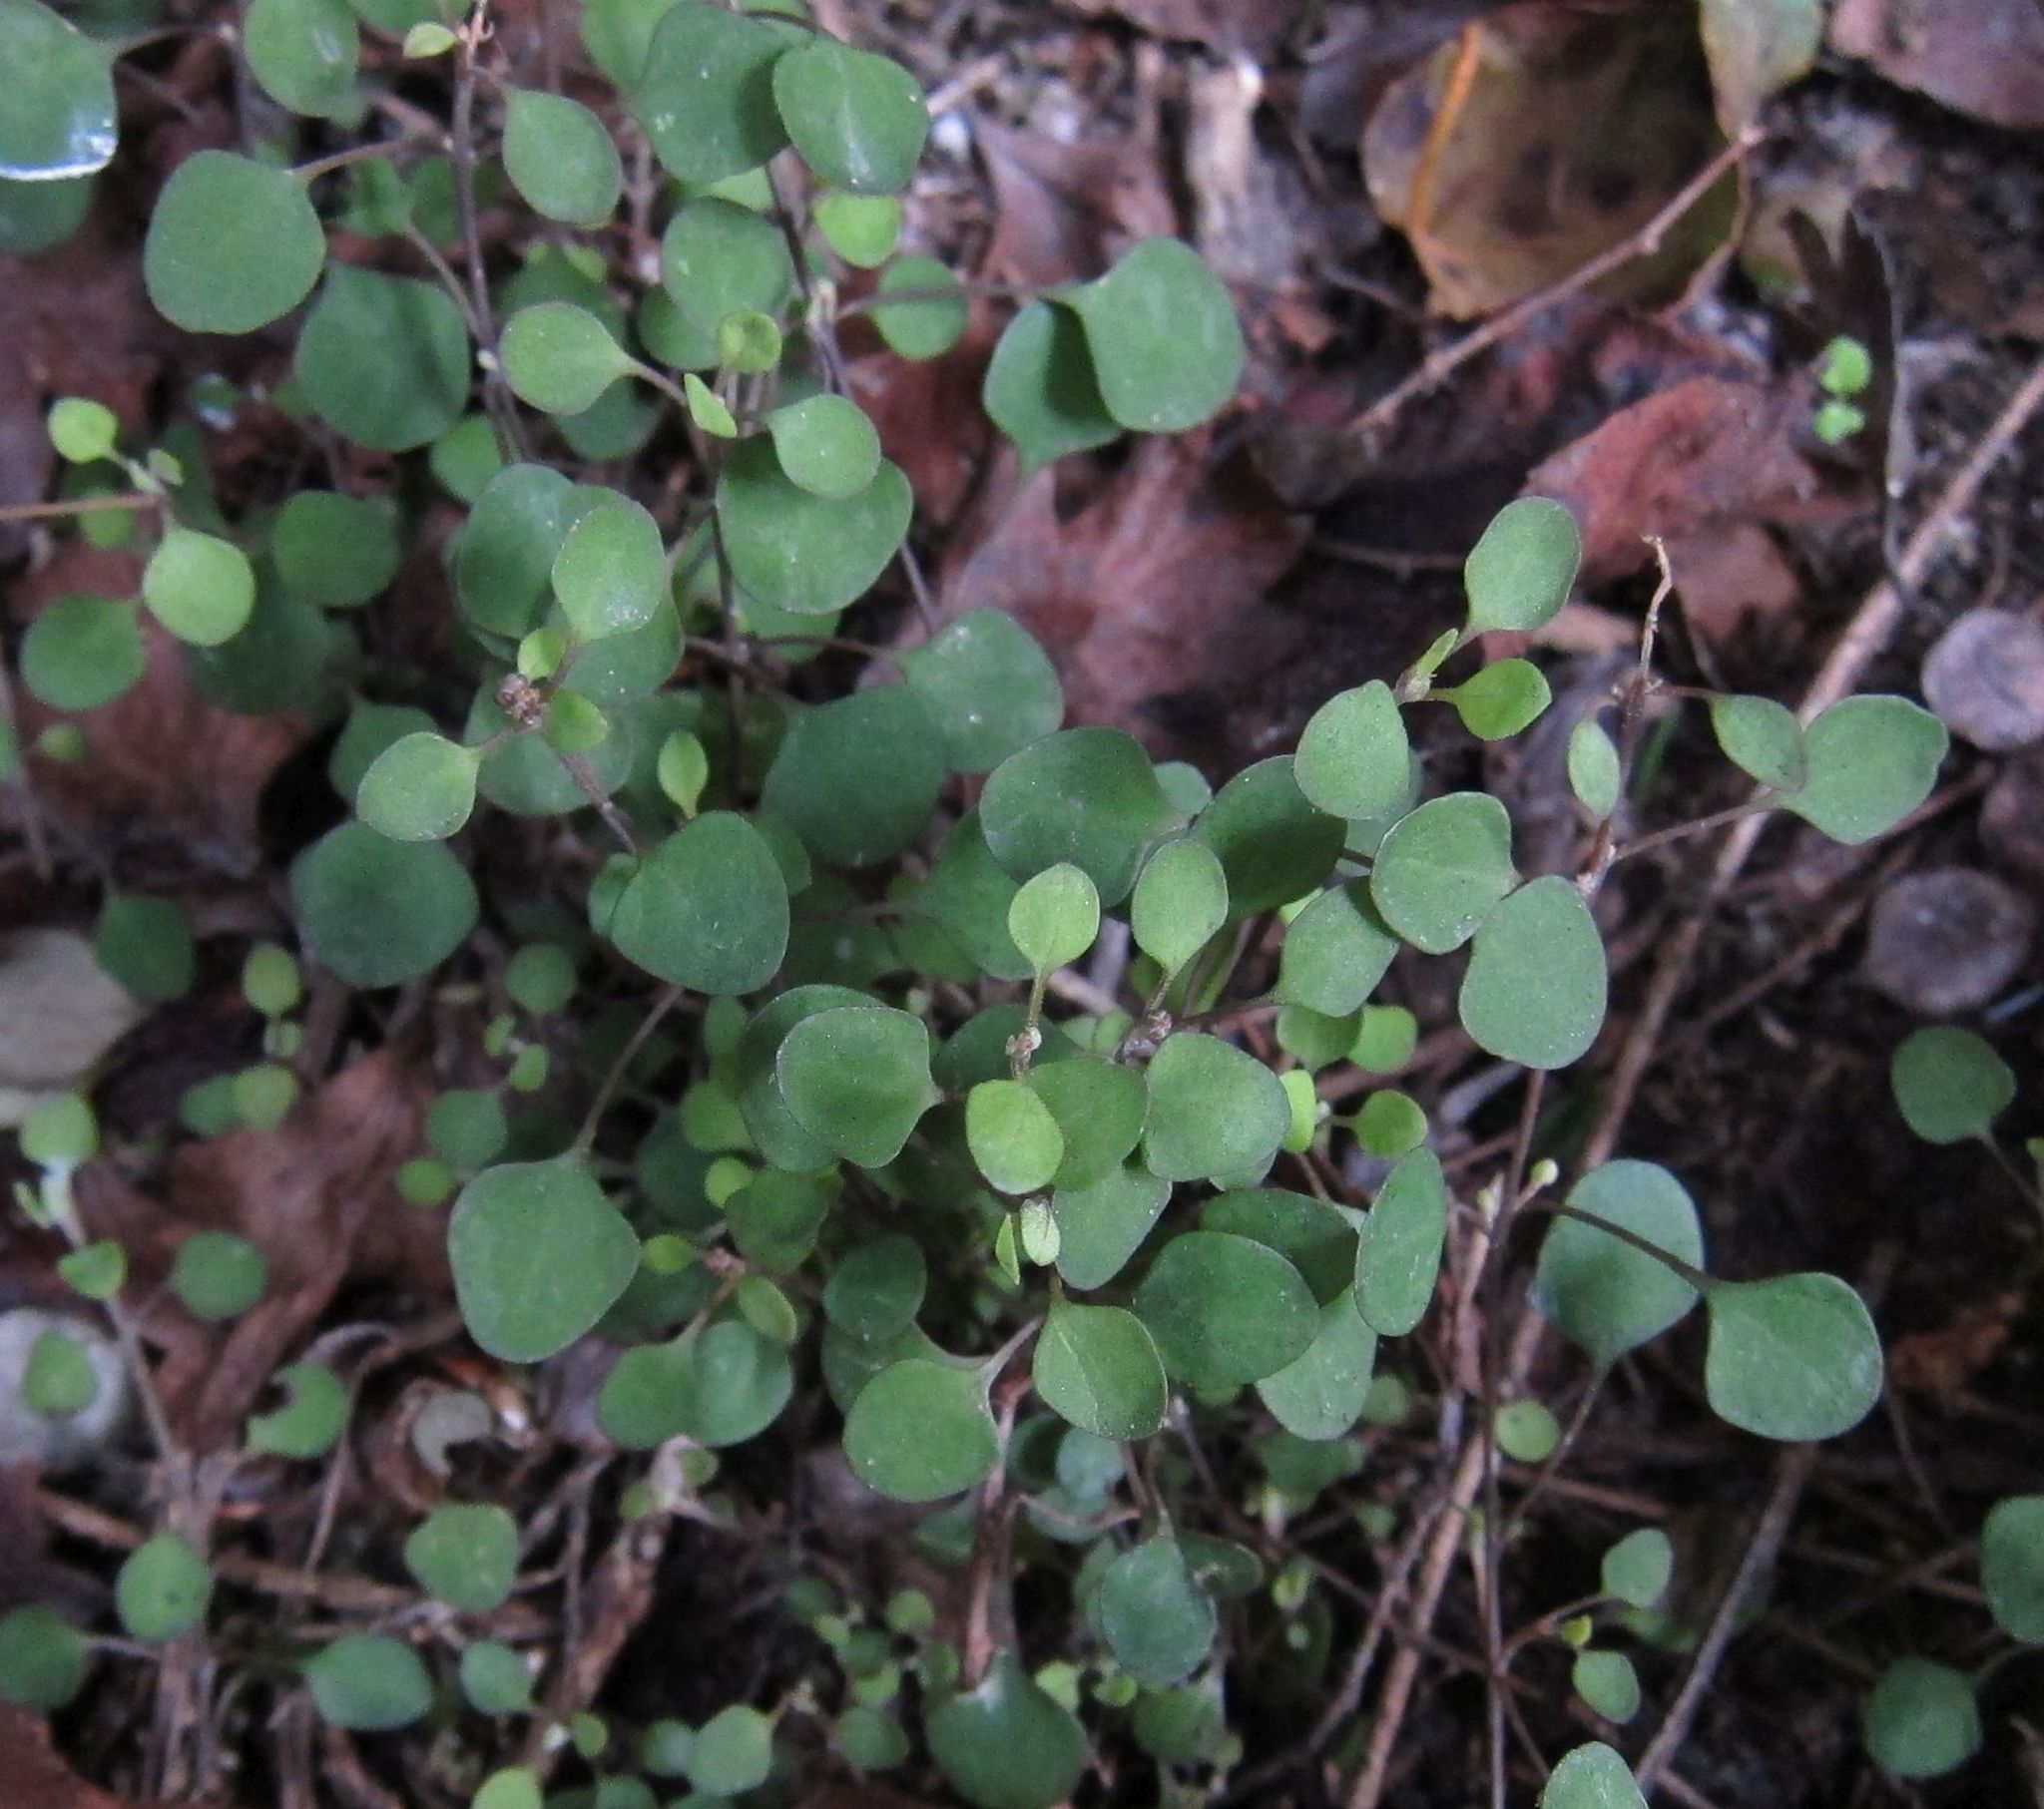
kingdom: Plantae
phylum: Tracheophyta
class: Magnoliopsida
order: Caryophyllales
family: Amaranthaceae
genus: Chenopodium
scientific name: Chenopodium allanii
